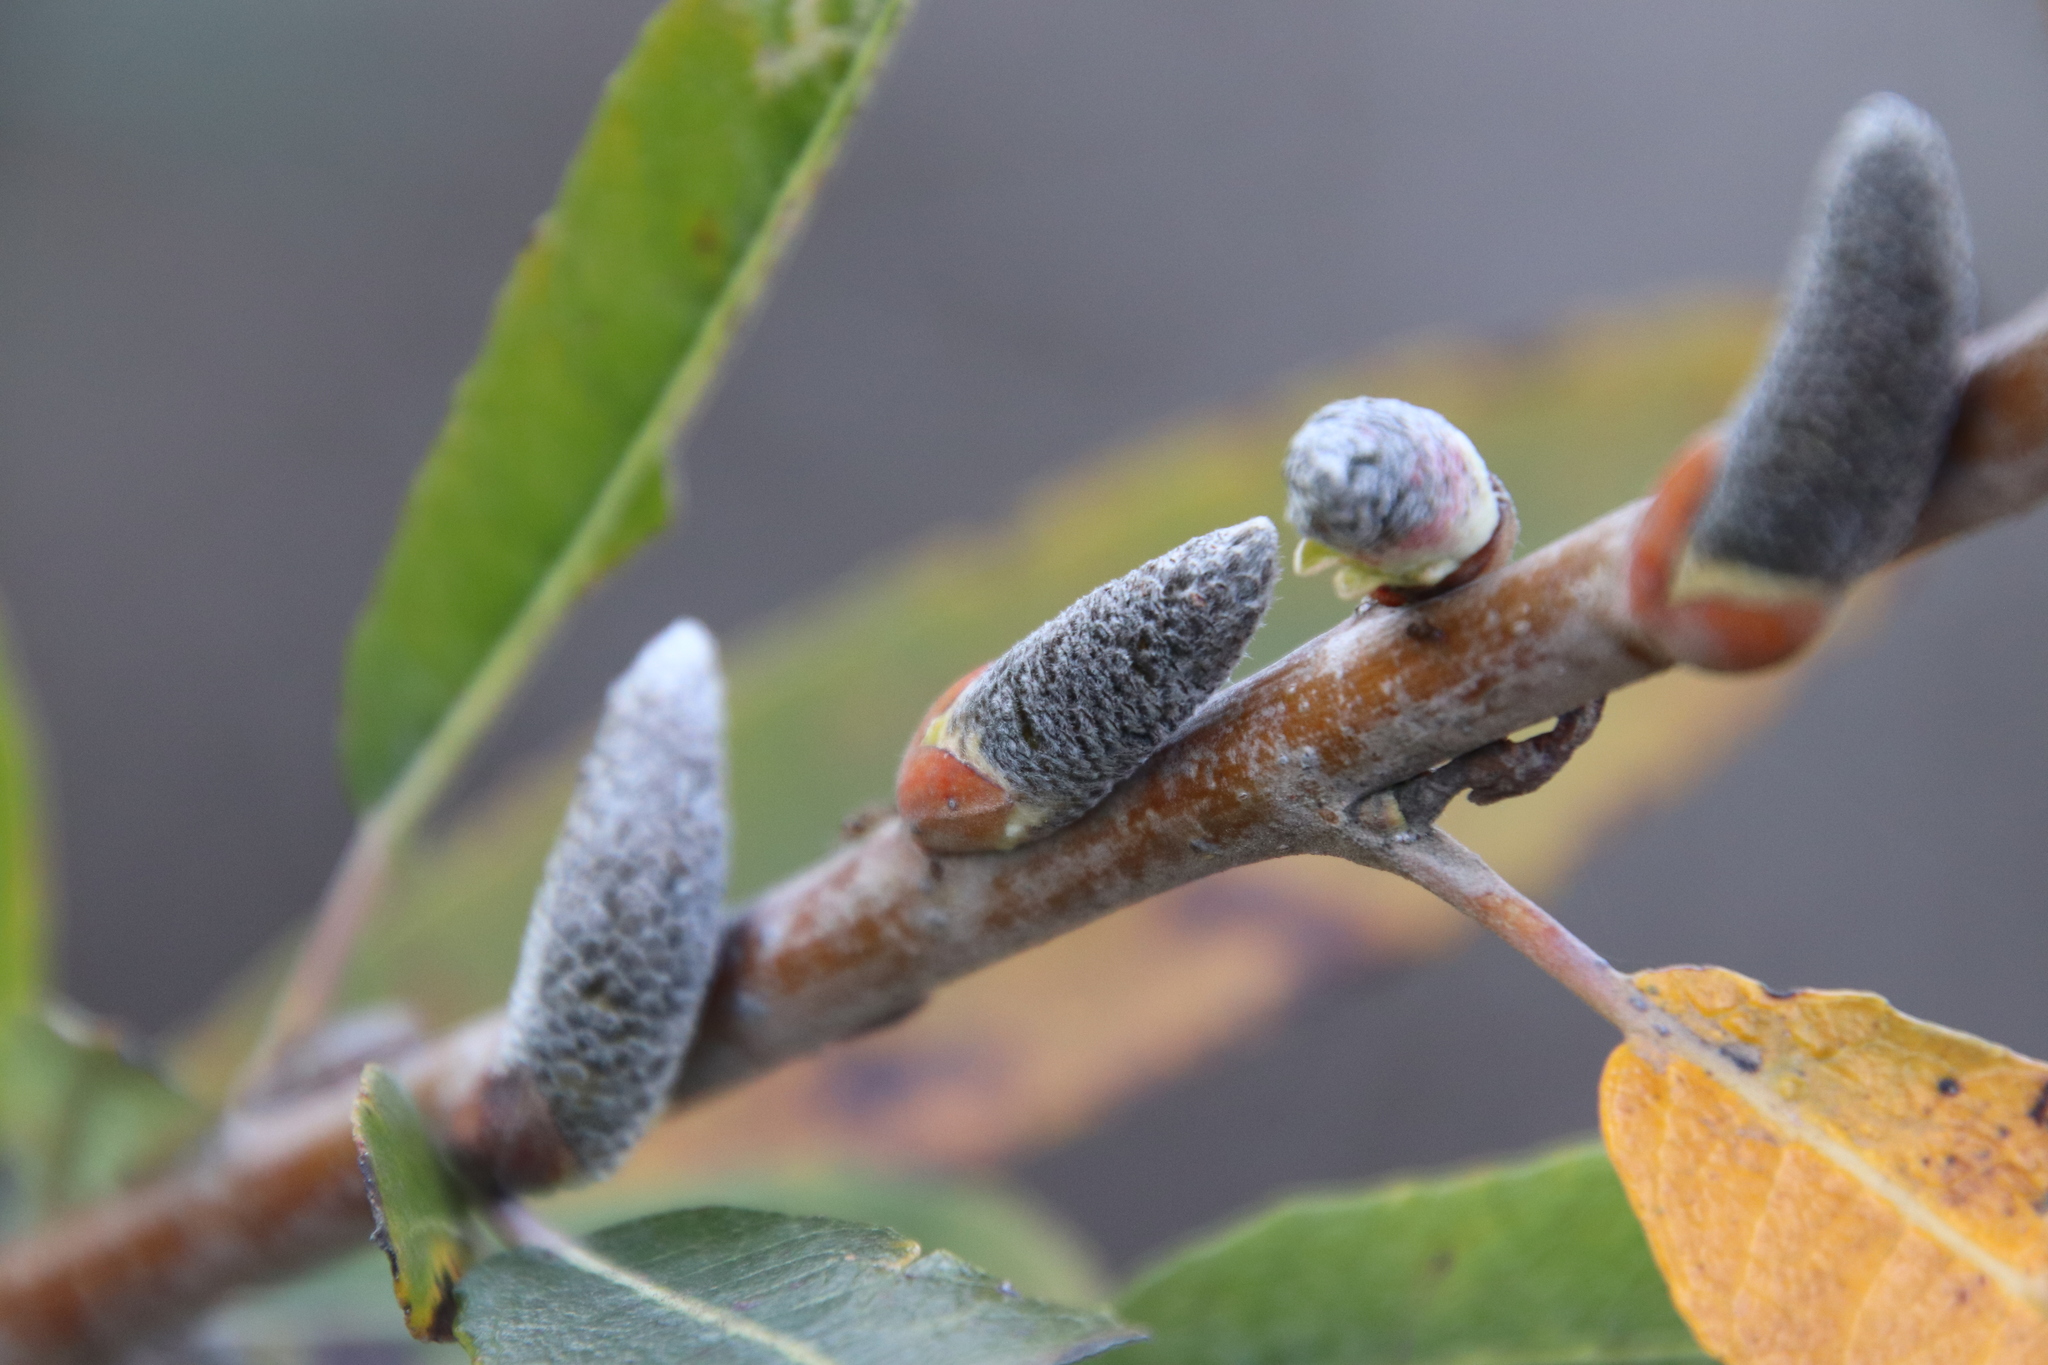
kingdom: Plantae
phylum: Tracheophyta
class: Magnoliopsida
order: Malpighiales
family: Salicaceae
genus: Salix
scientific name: Salix lasiolepis
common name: Arroyo willow
